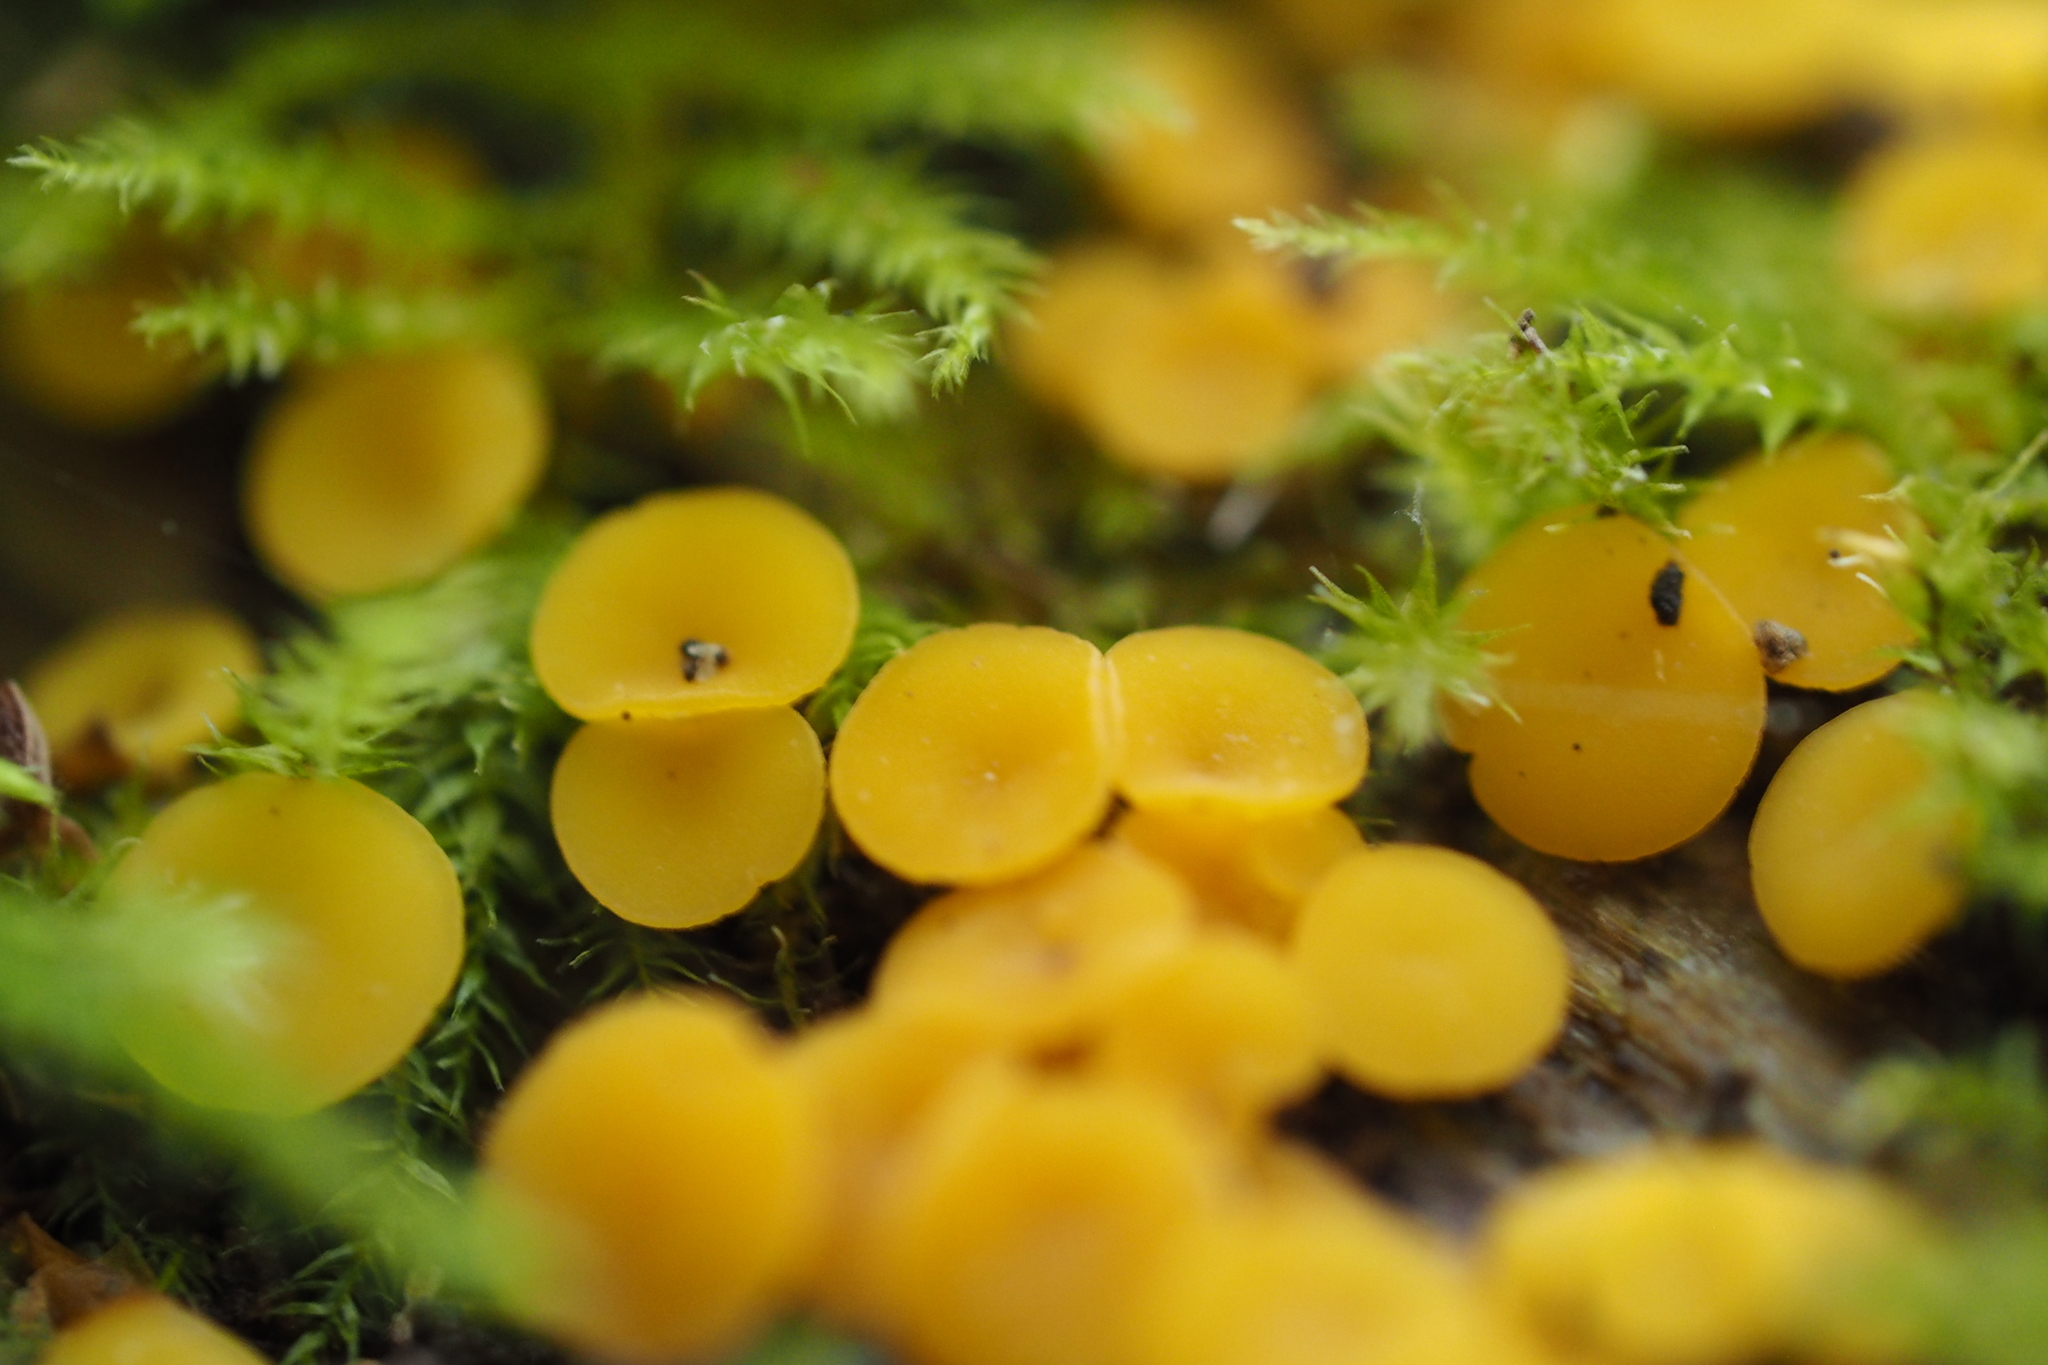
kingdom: Fungi
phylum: Ascomycota
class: Leotiomycetes
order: Helotiales
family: Pezizellaceae
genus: Calycina
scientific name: Calycina citrina
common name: Yellow fairy cups
